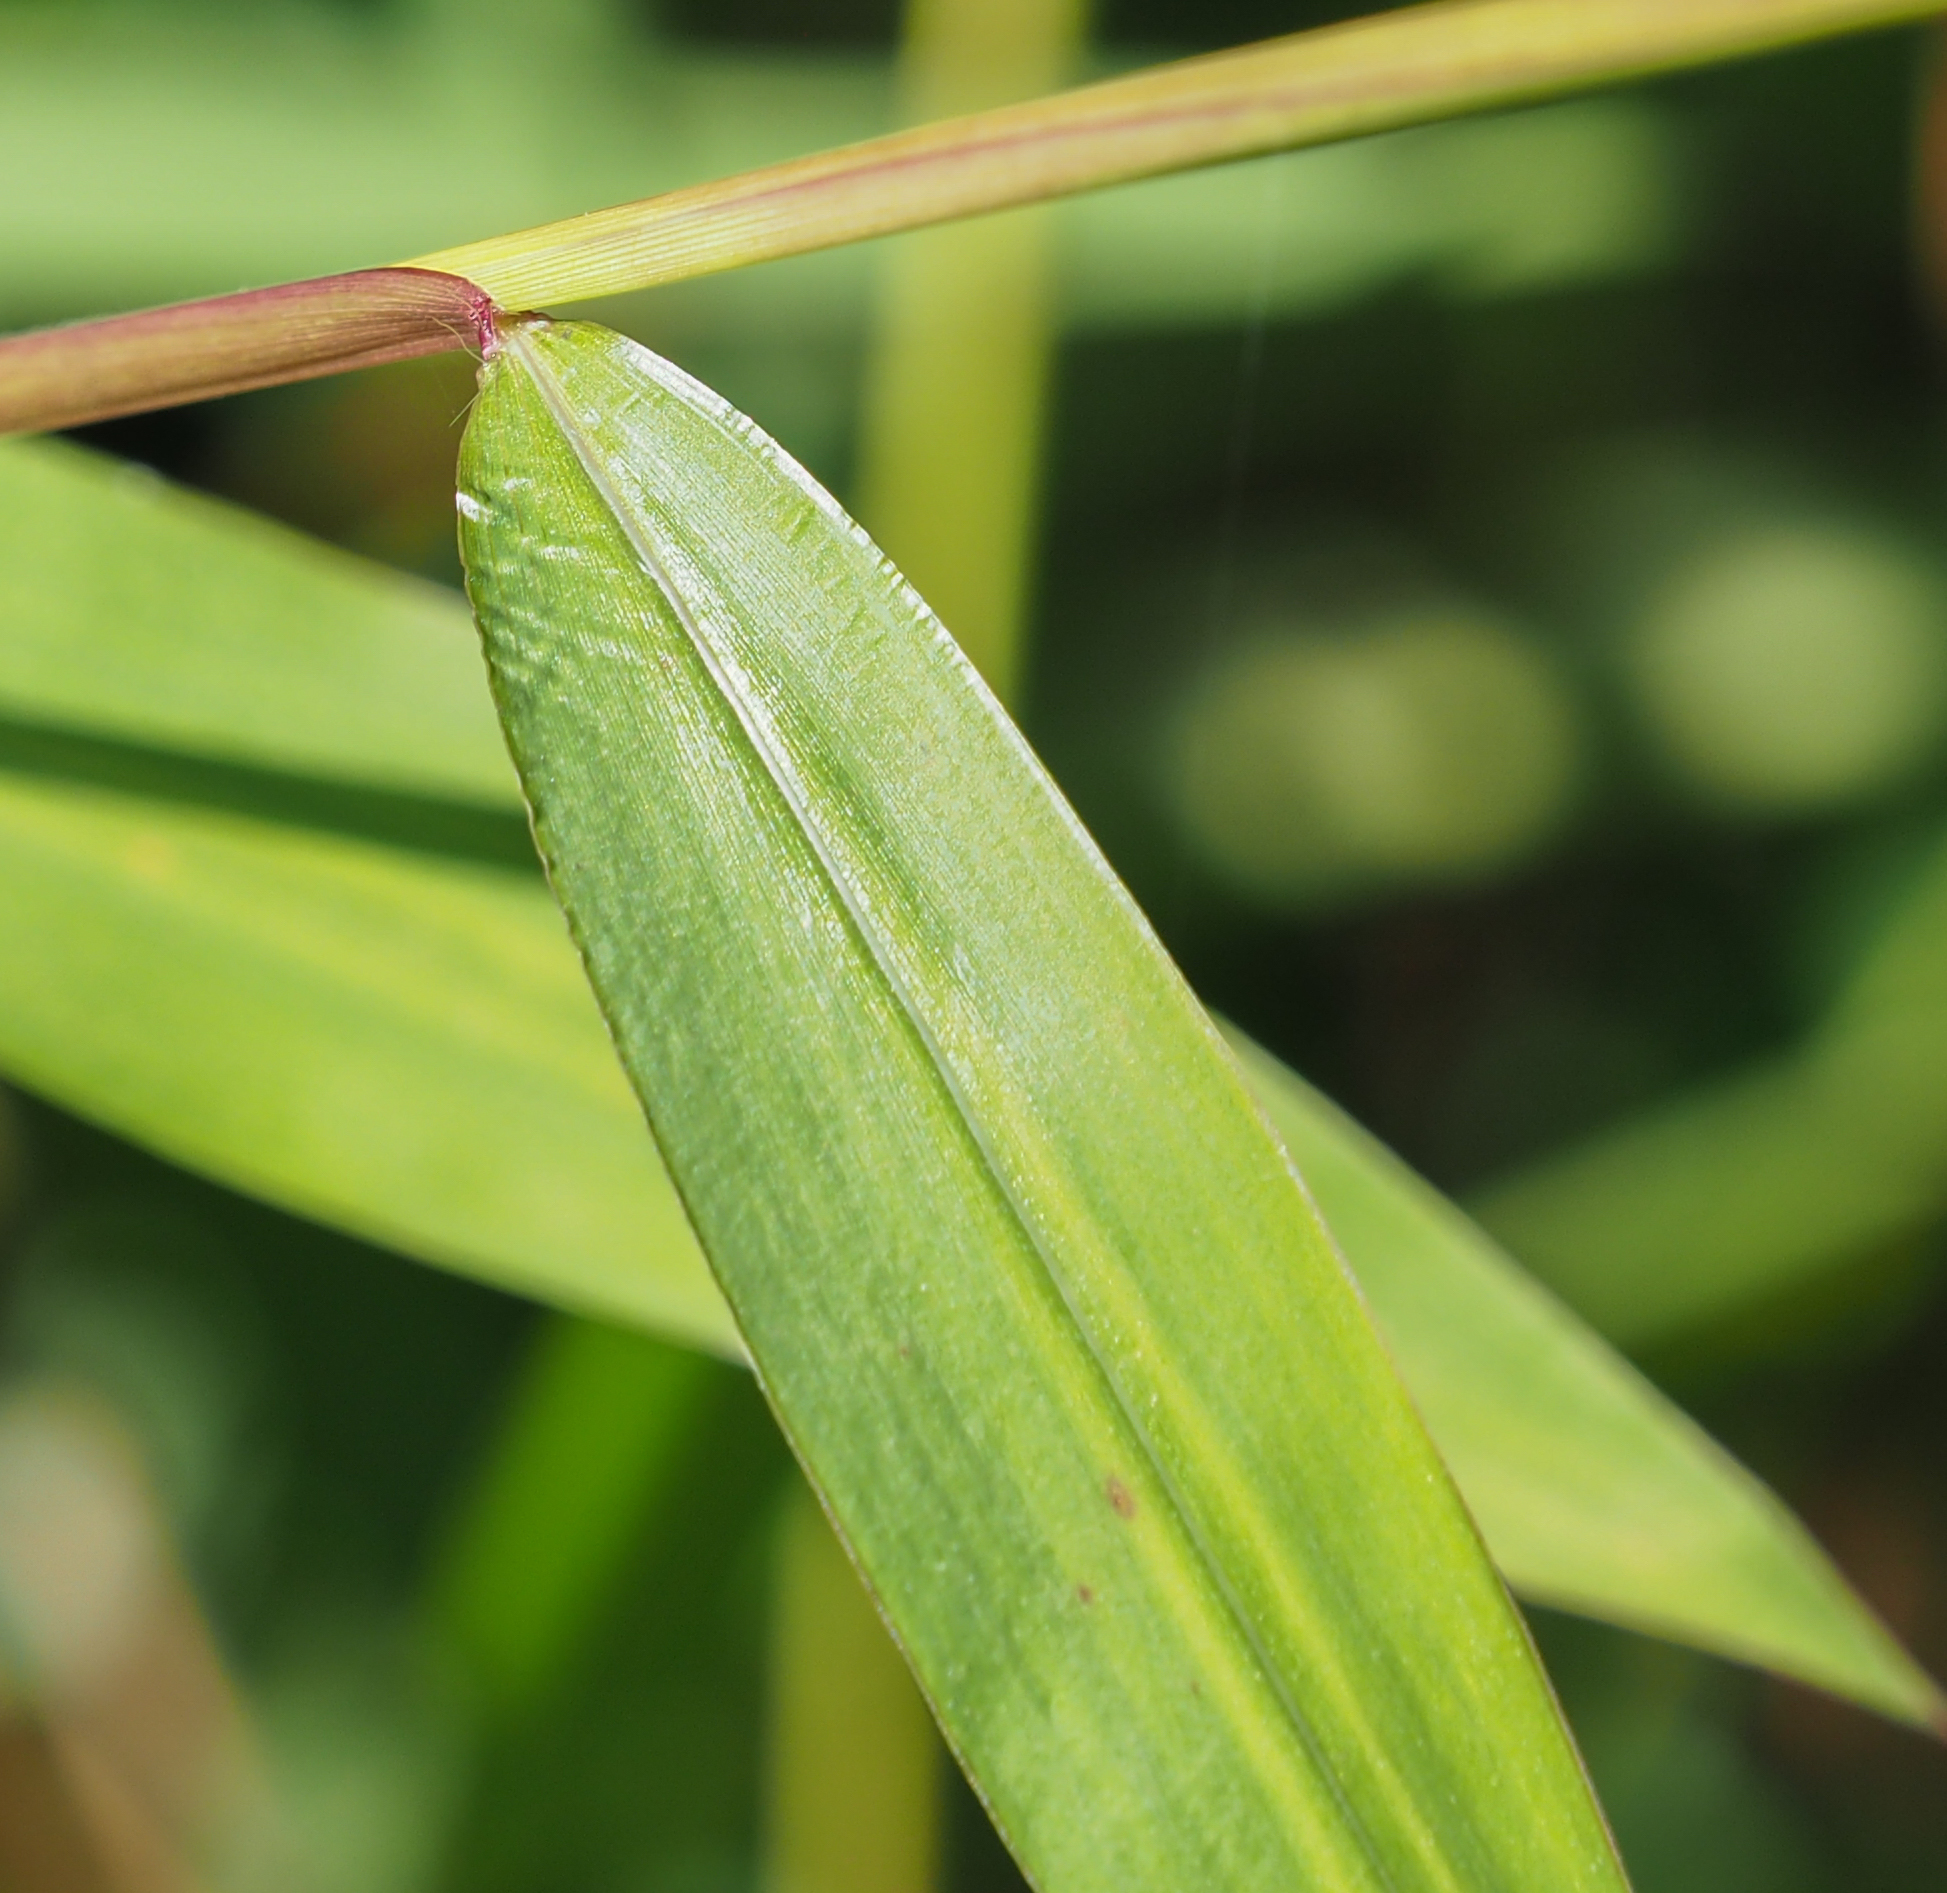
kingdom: Plantae
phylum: Tracheophyta
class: Liliopsida
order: Poales
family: Poaceae
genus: Microstegium
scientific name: Microstegium vimineum
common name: Japanese stiltgrass
